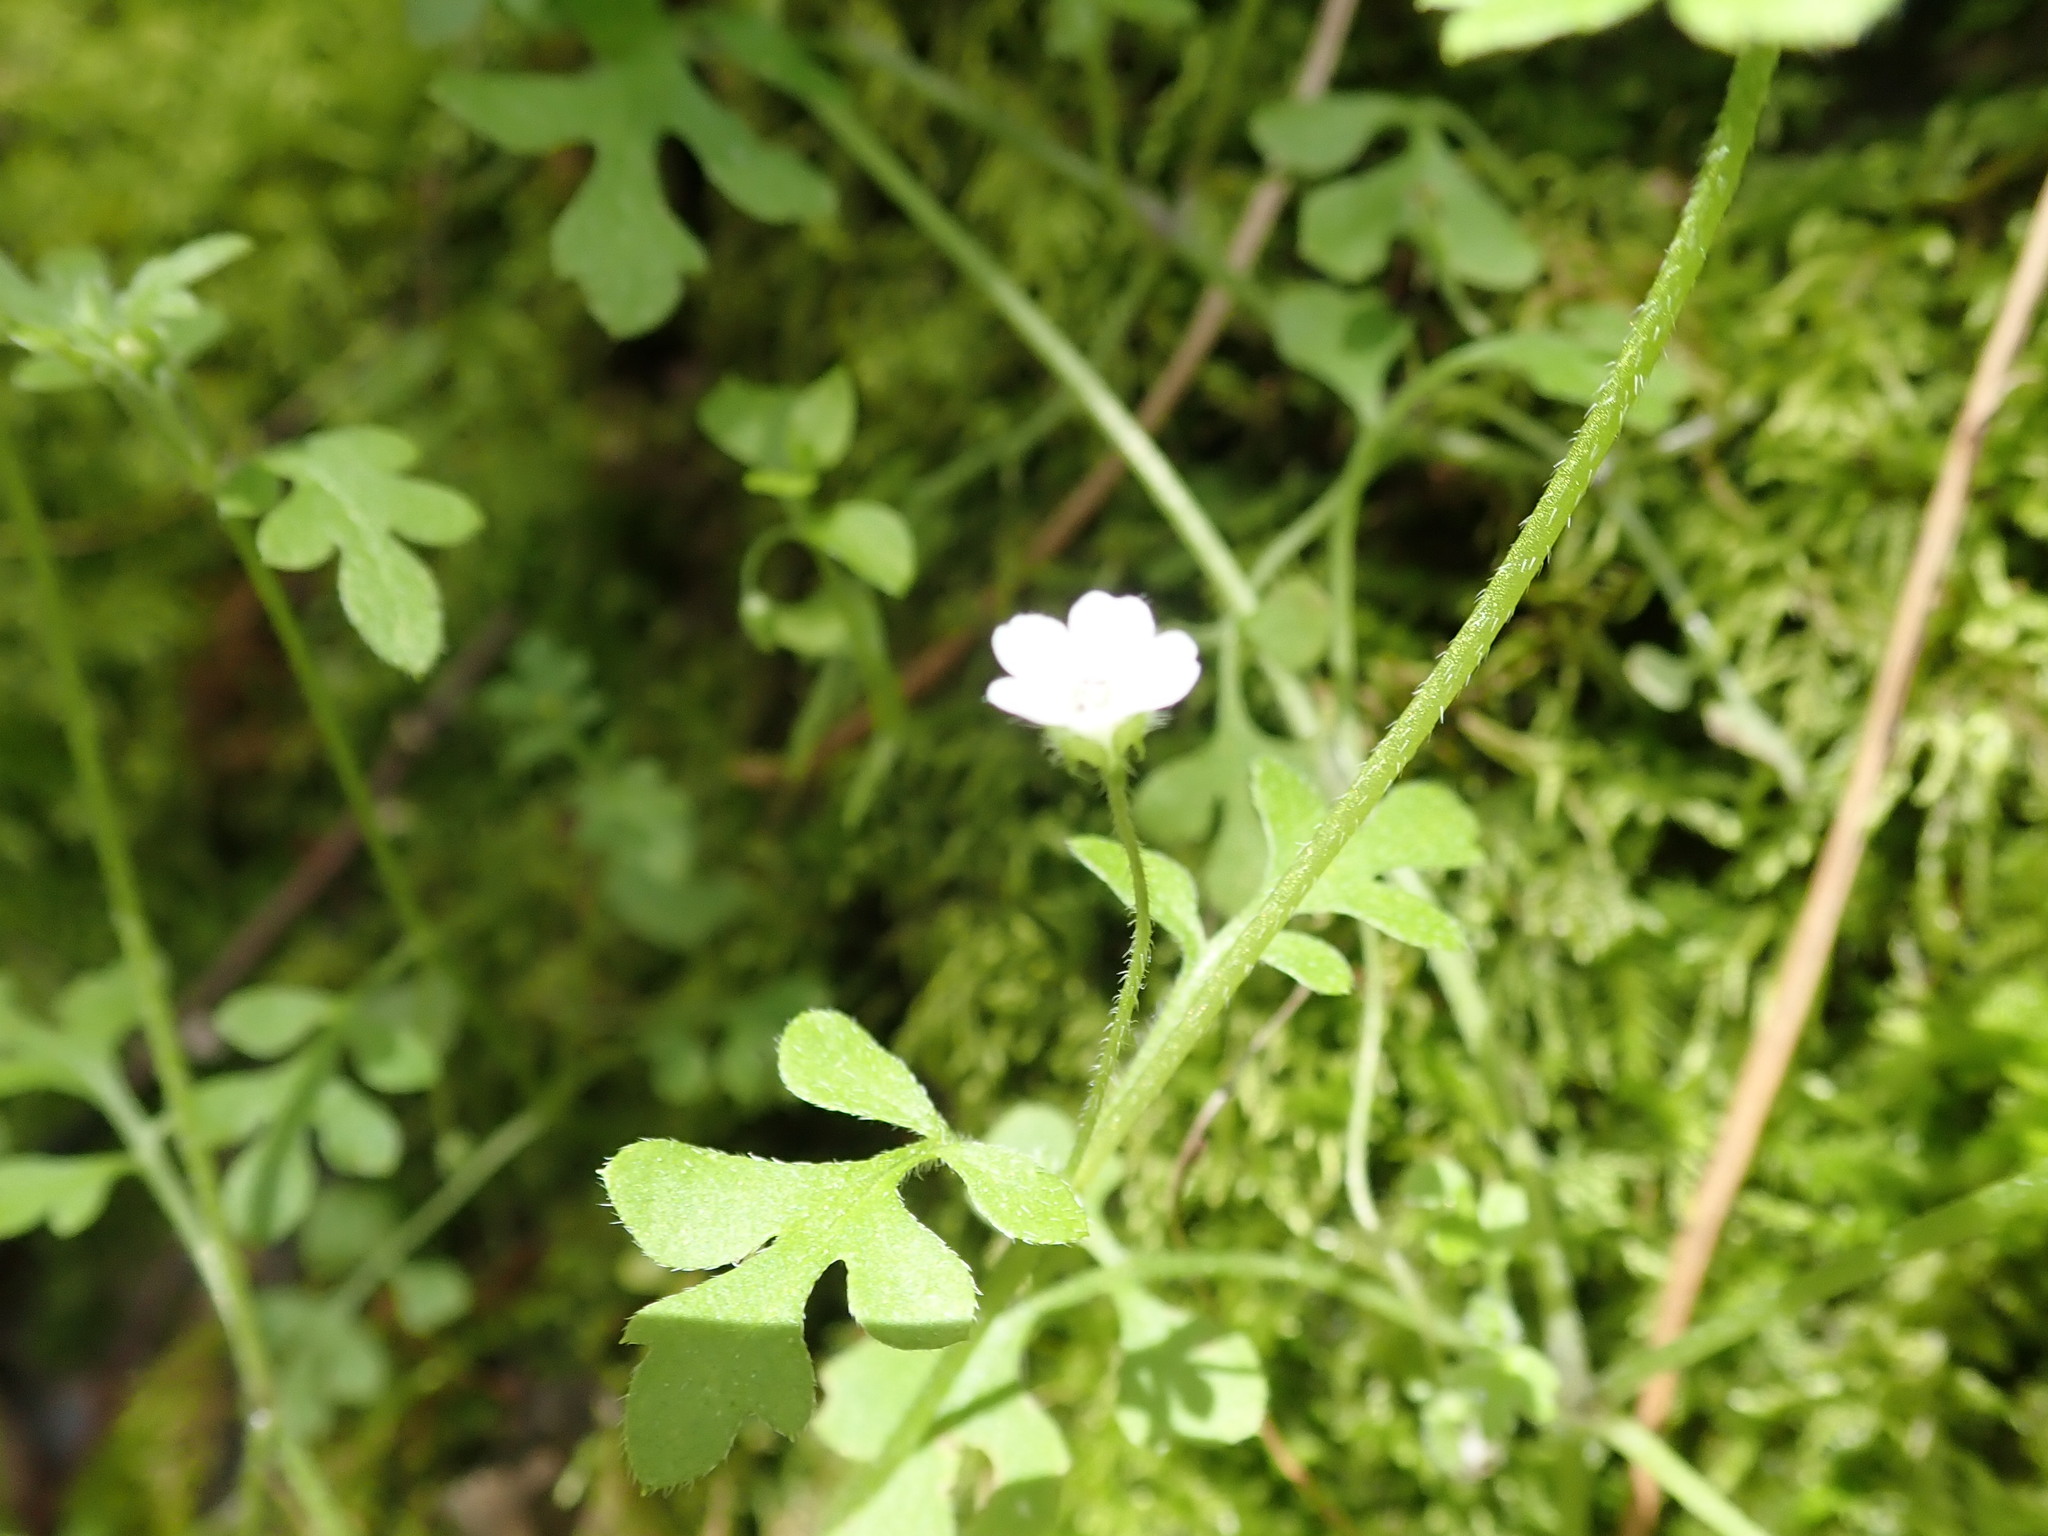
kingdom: Plantae
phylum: Tracheophyta
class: Magnoliopsida
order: Boraginales
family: Hydrophyllaceae
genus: Nemophila
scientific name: Nemophila heterophylla
